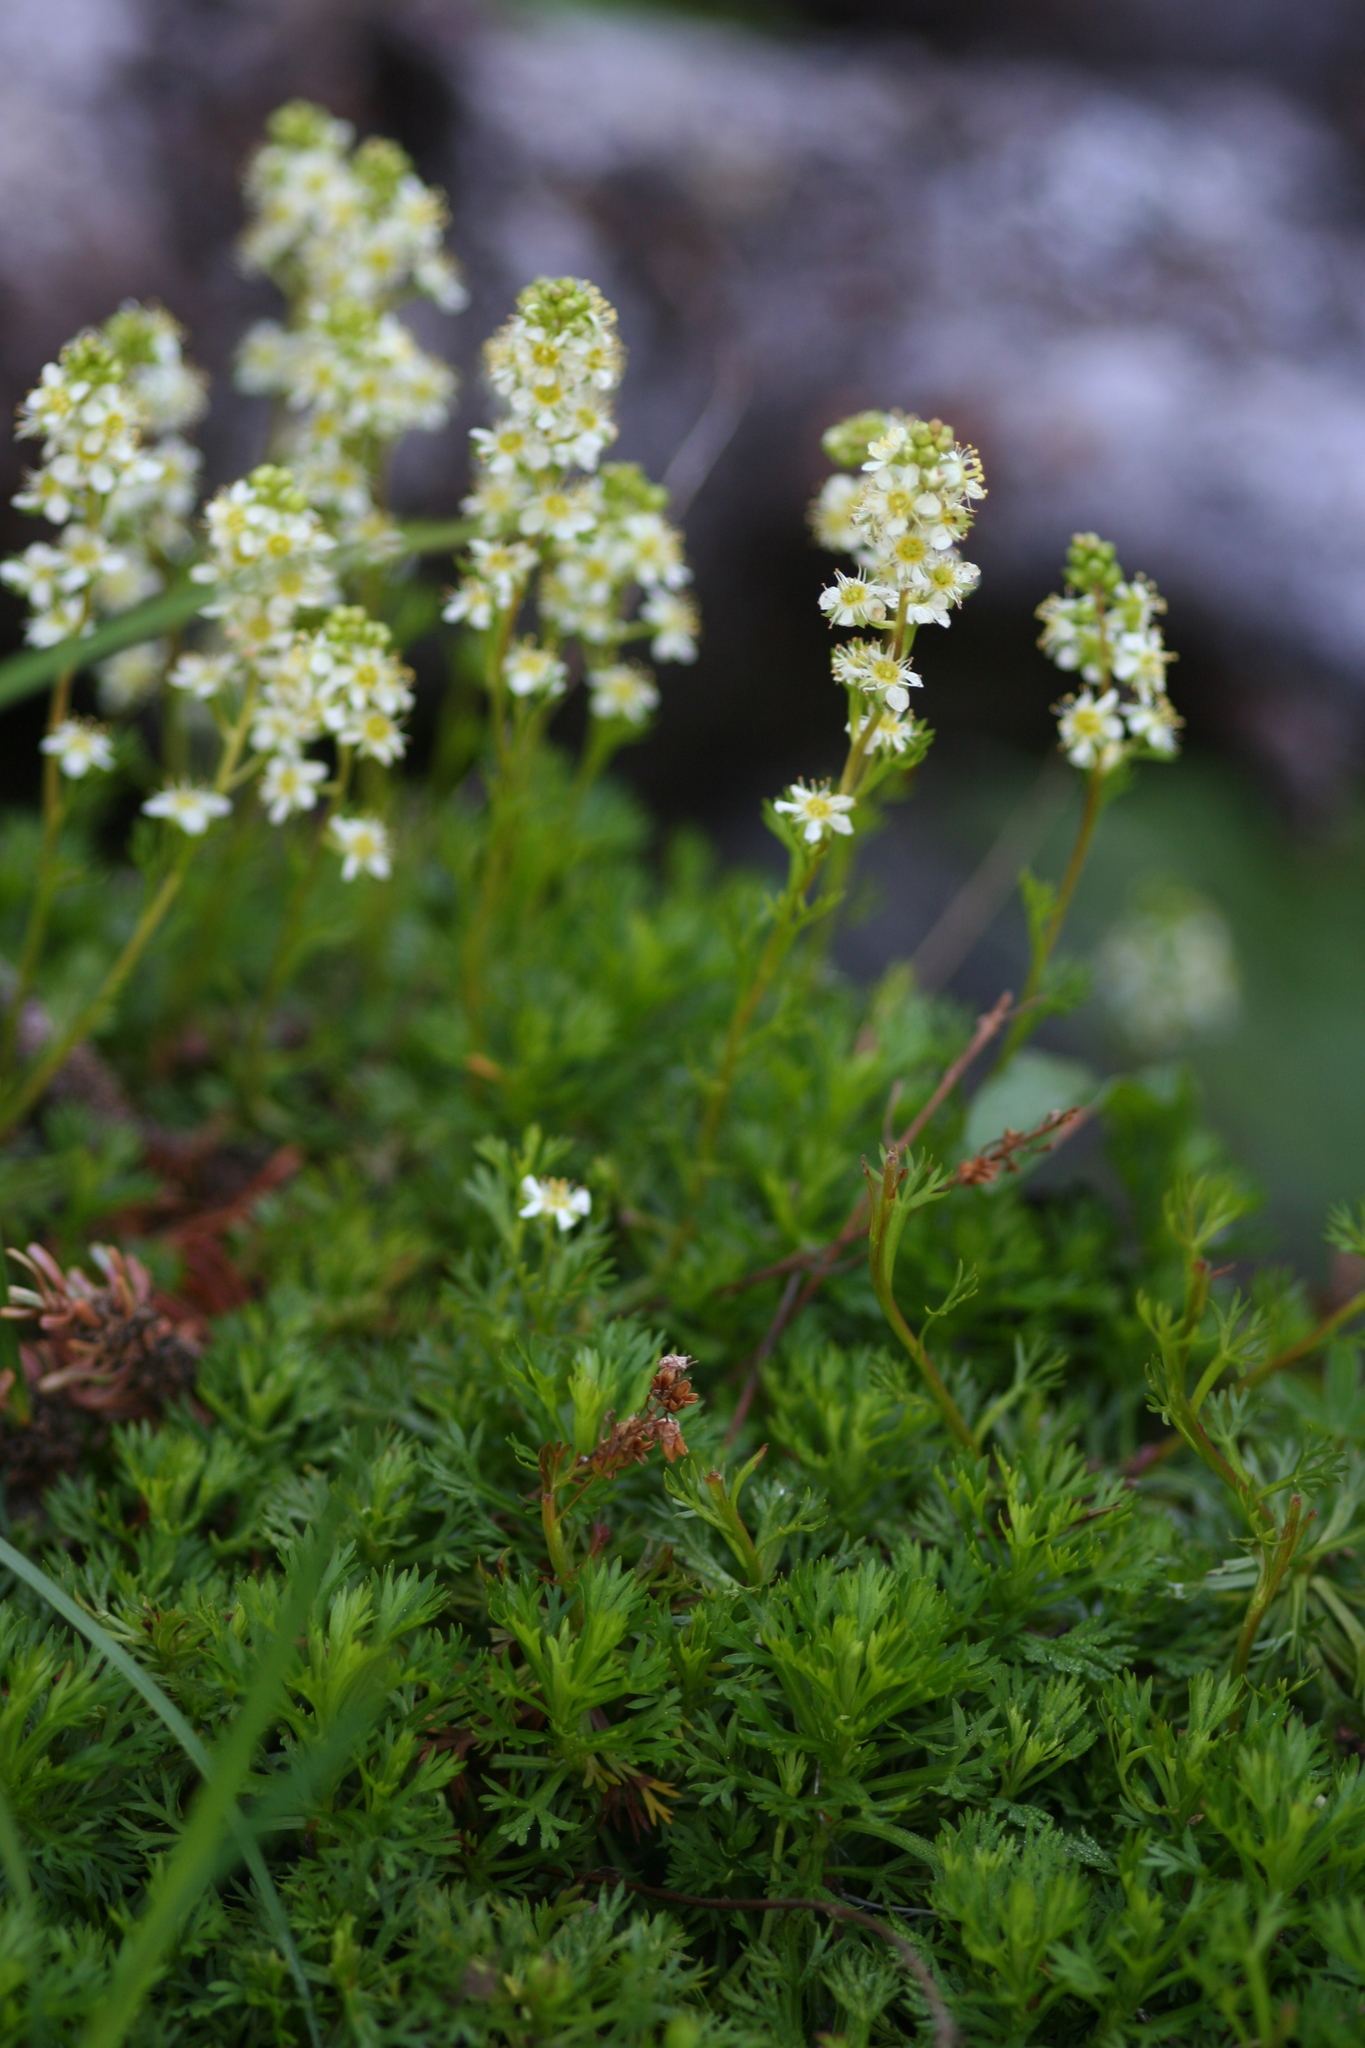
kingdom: Plantae
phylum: Tracheophyta
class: Magnoliopsida
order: Rosales
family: Rosaceae
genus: Luetkea
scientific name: Luetkea pectinata
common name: Partridgefoot
